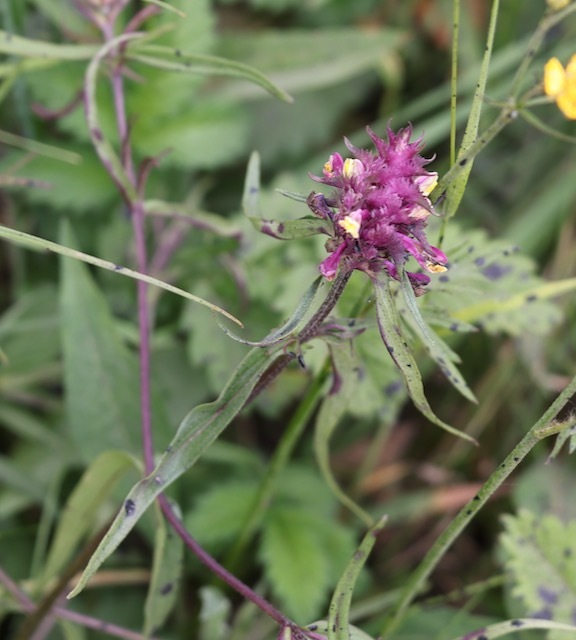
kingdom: Plantae
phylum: Tracheophyta
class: Magnoliopsida
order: Lamiales
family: Orobanchaceae
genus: Melampyrum
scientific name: Melampyrum cristatum
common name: Crested cow-wheat
